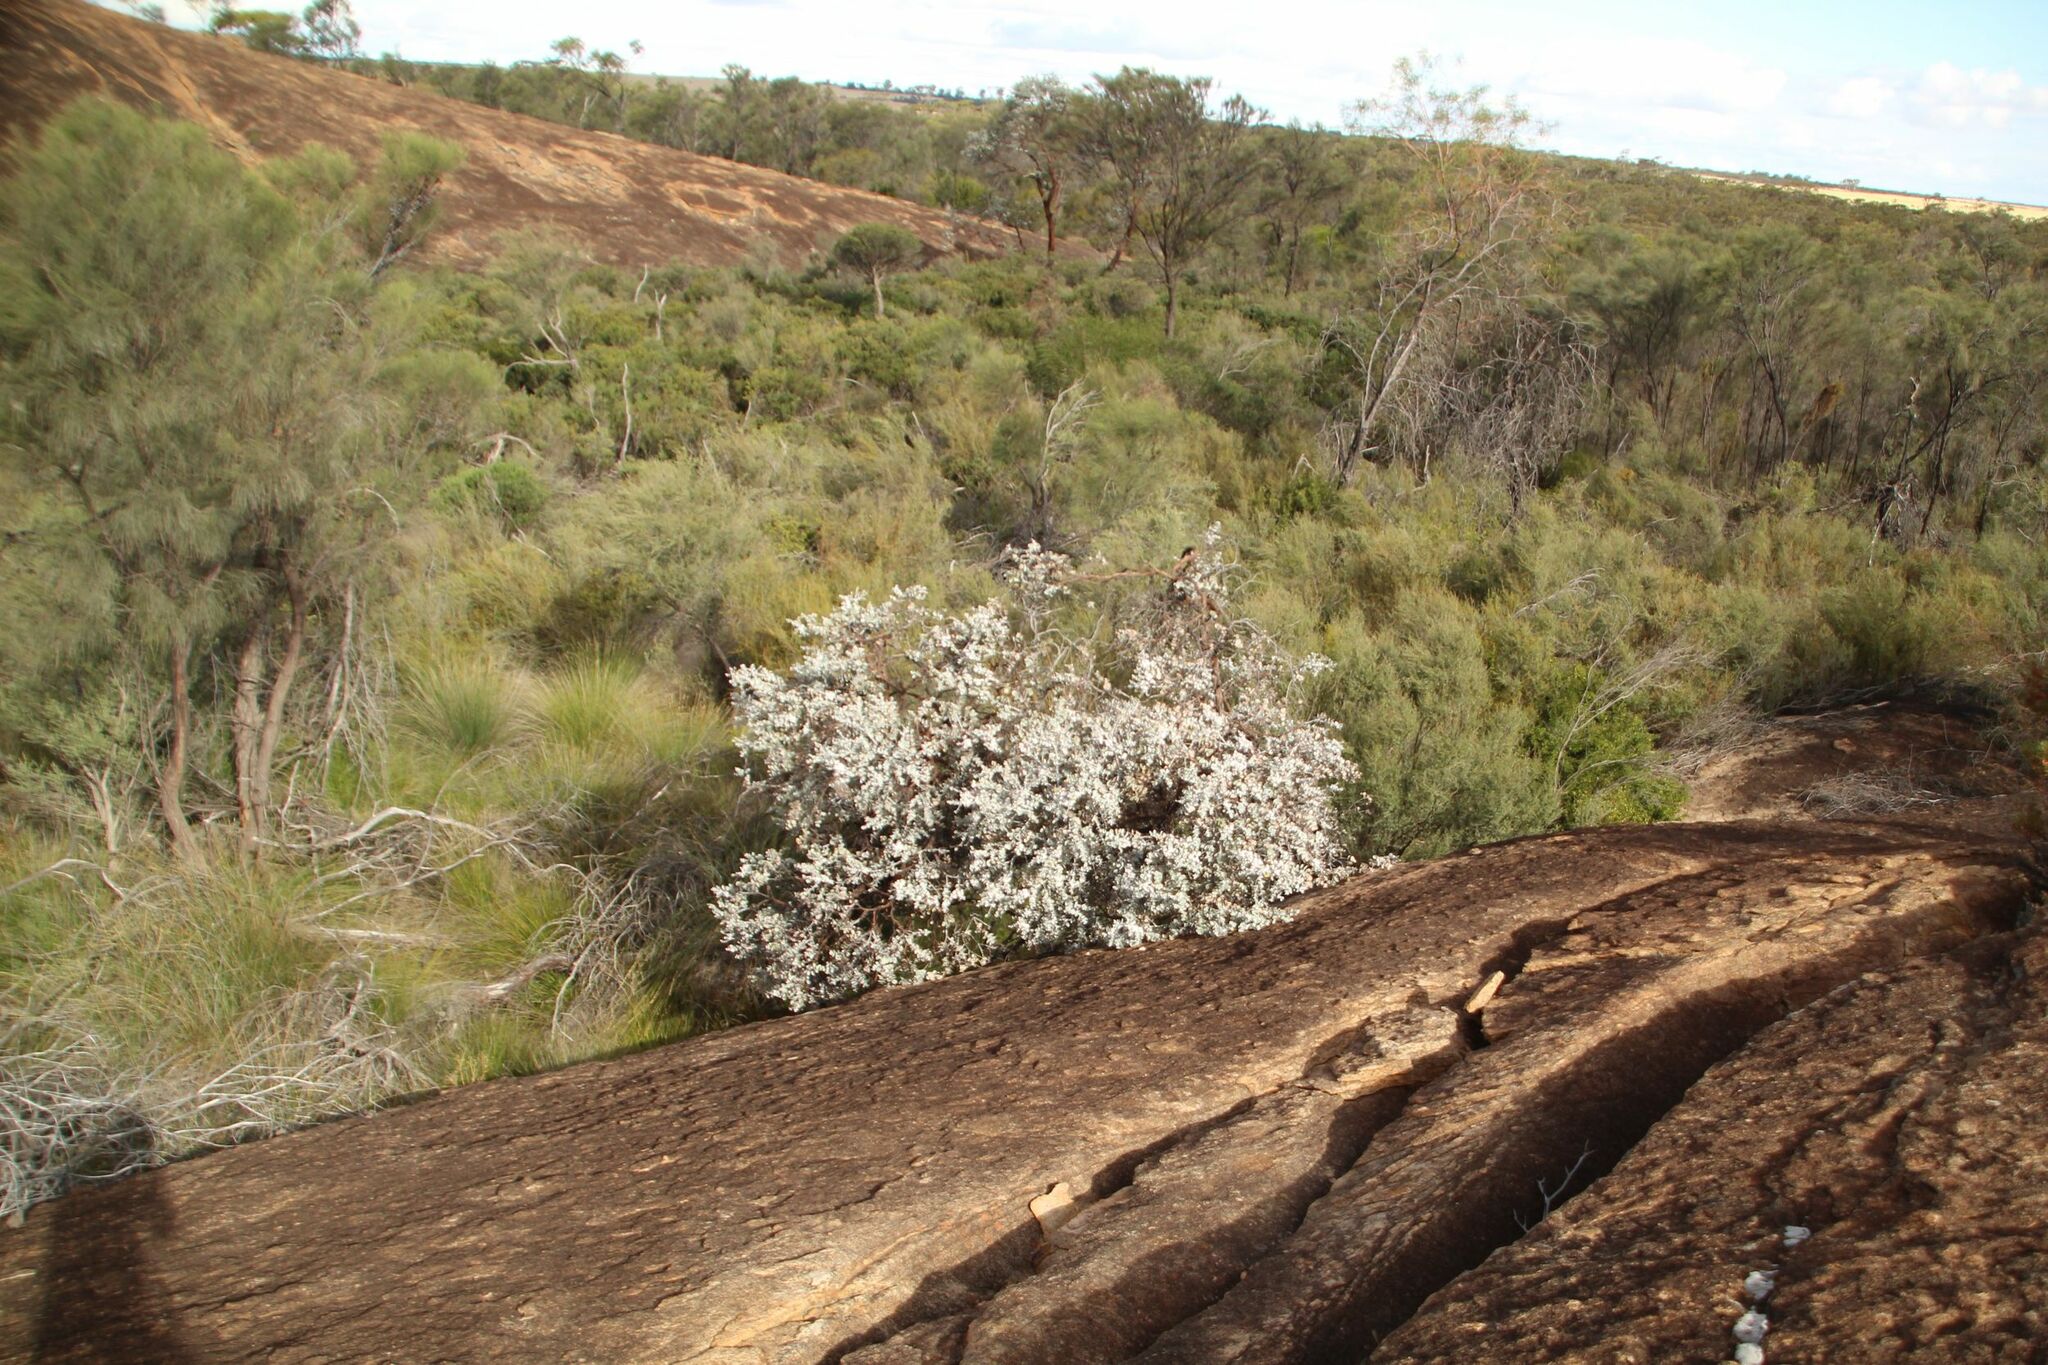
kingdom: Plantae
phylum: Tracheophyta
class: Magnoliopsida
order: Myrtales
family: Myrtaceae
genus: Eucalyptus
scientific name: Eucalyptus crucis
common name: Southern cross silver mallee
